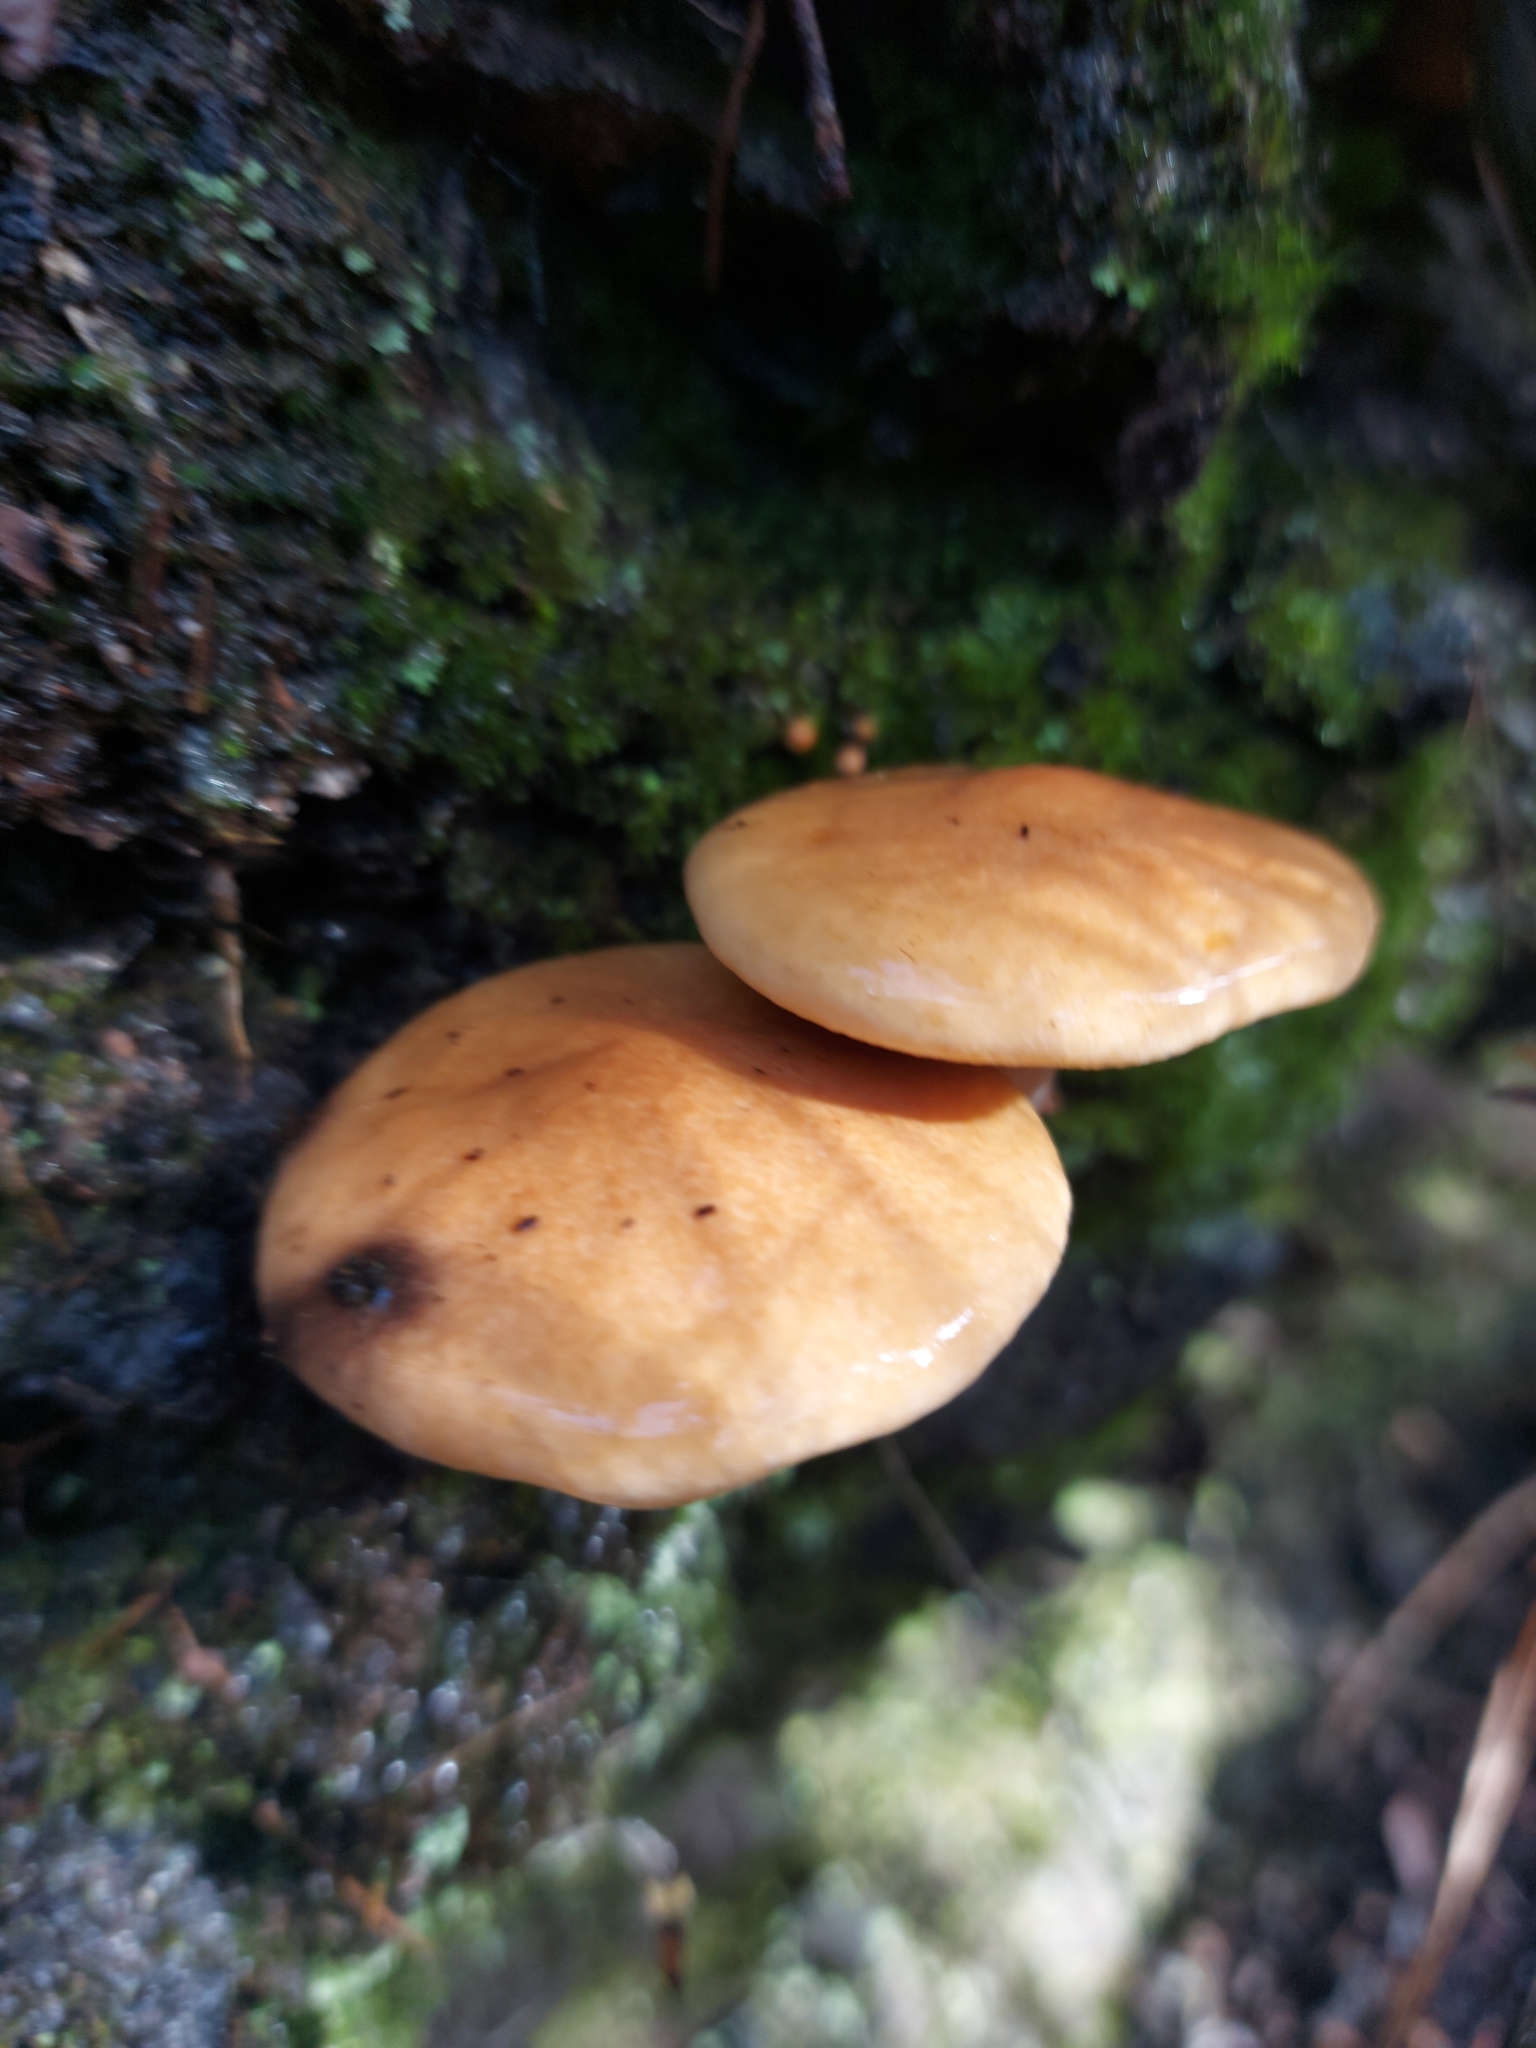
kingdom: Fungi
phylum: Basidiomycota
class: Agaricomycetes
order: Boletales
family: Suillaceae
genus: Suillus
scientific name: Suillus bovinus
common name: Bovine bolete
